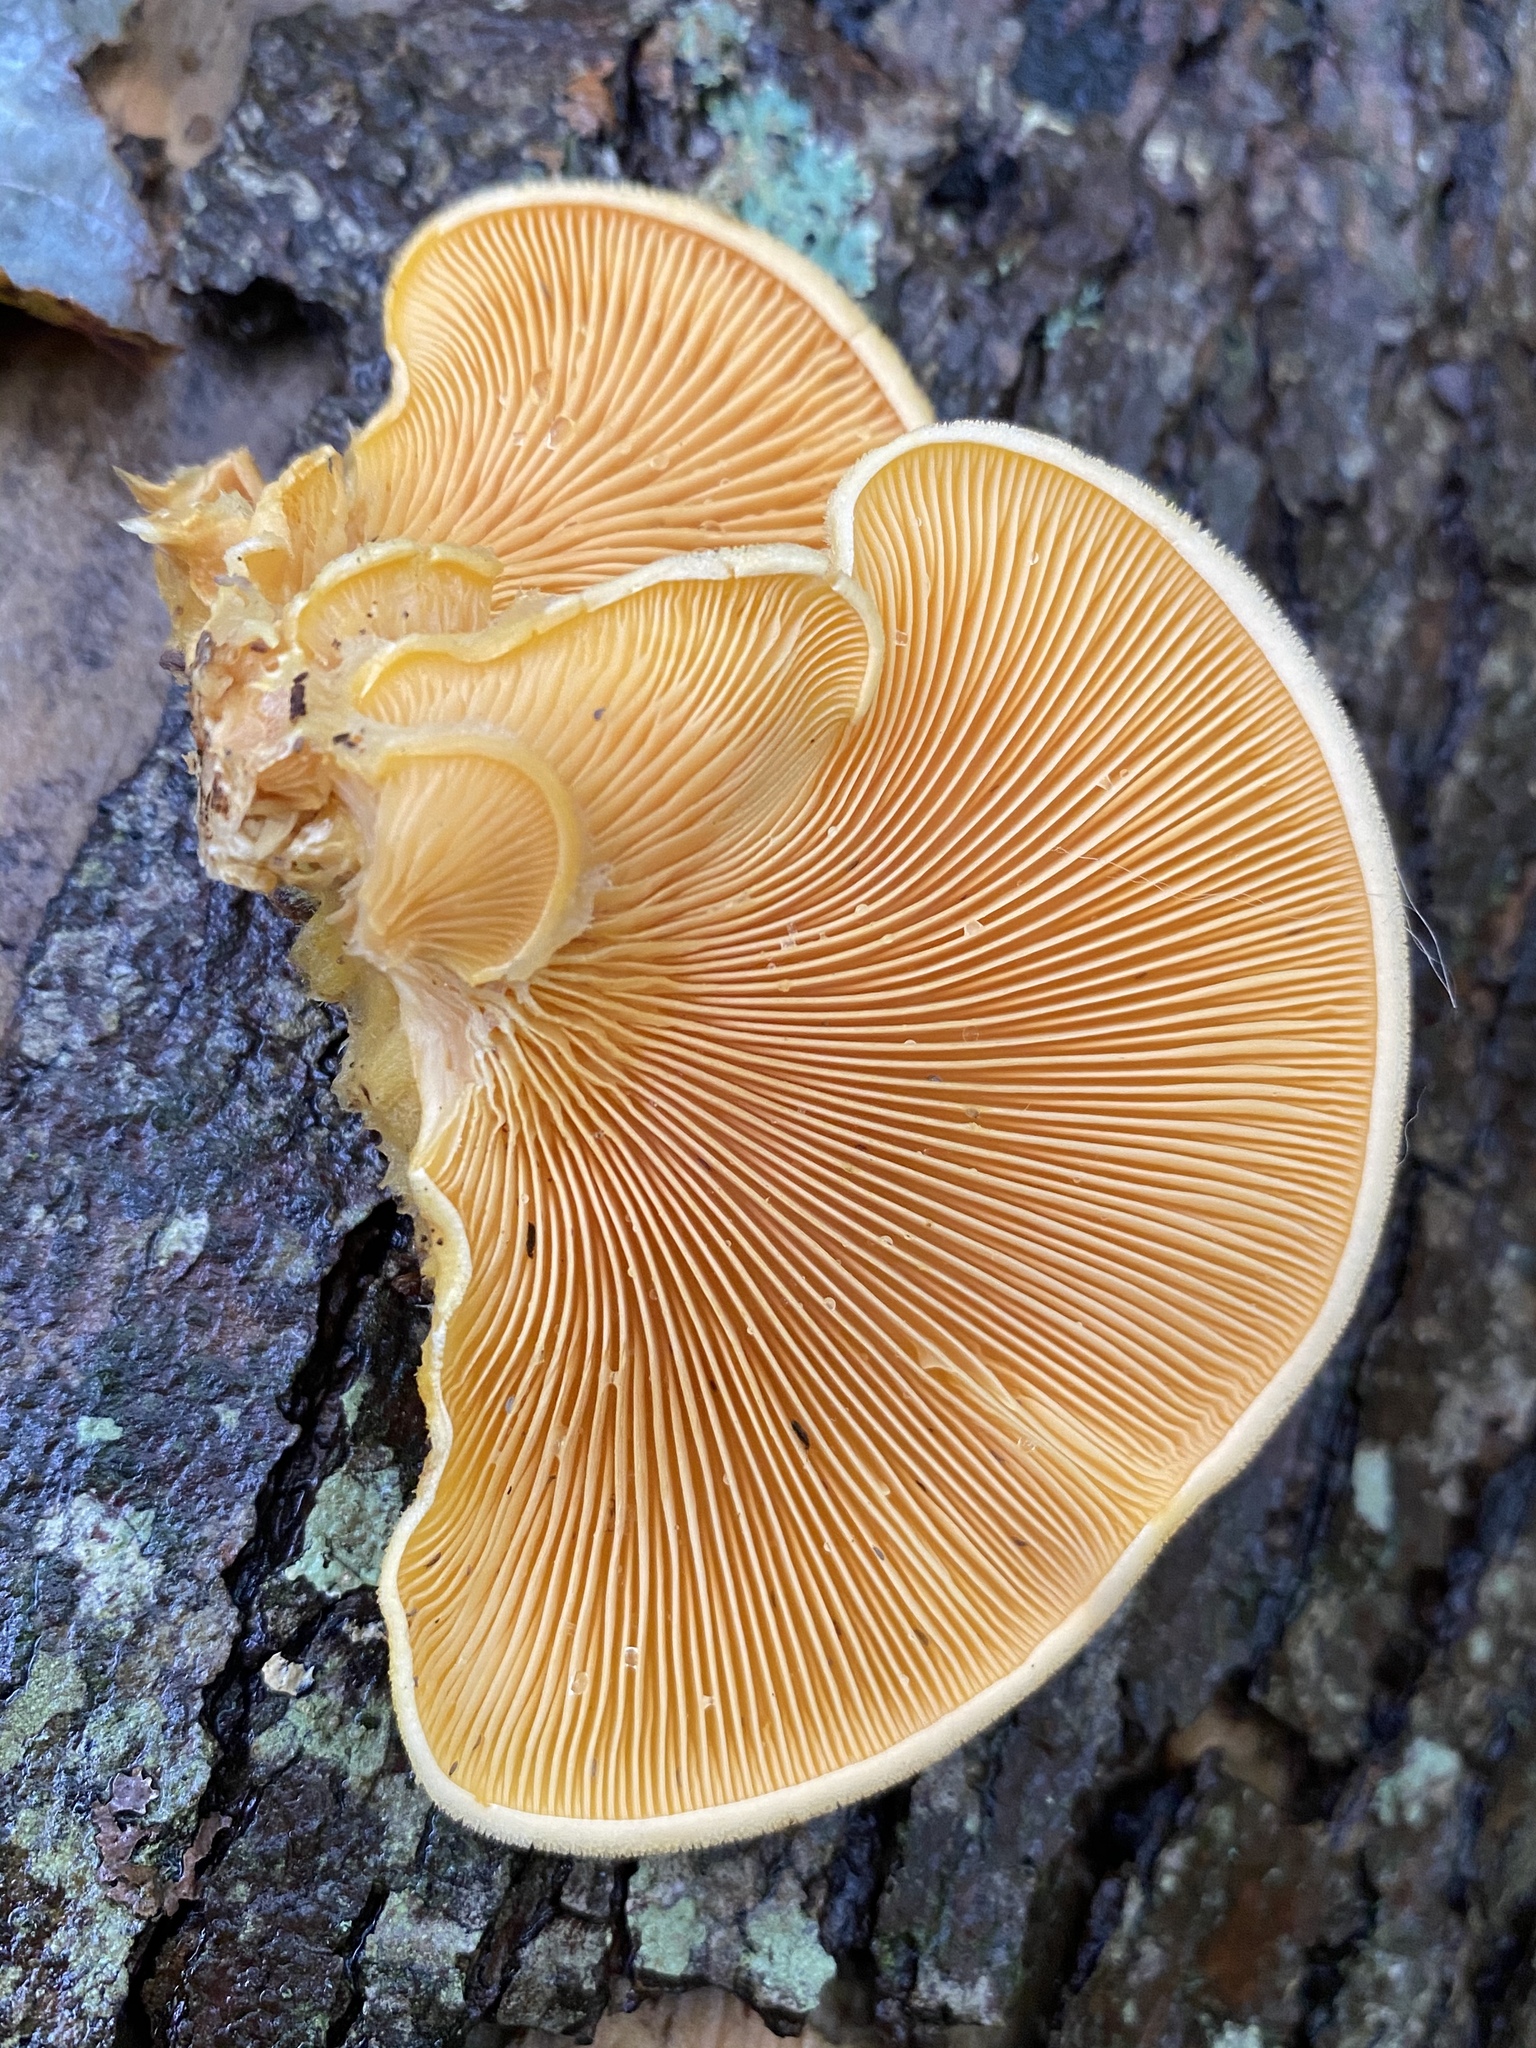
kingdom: Fungi
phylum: Basidiomycota
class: Agaricomycetes
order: Agaricales
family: Phyllotopsidaceae
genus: Phyllotopsis
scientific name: Phyllotopsis nidulans
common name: Orange mock oyster
